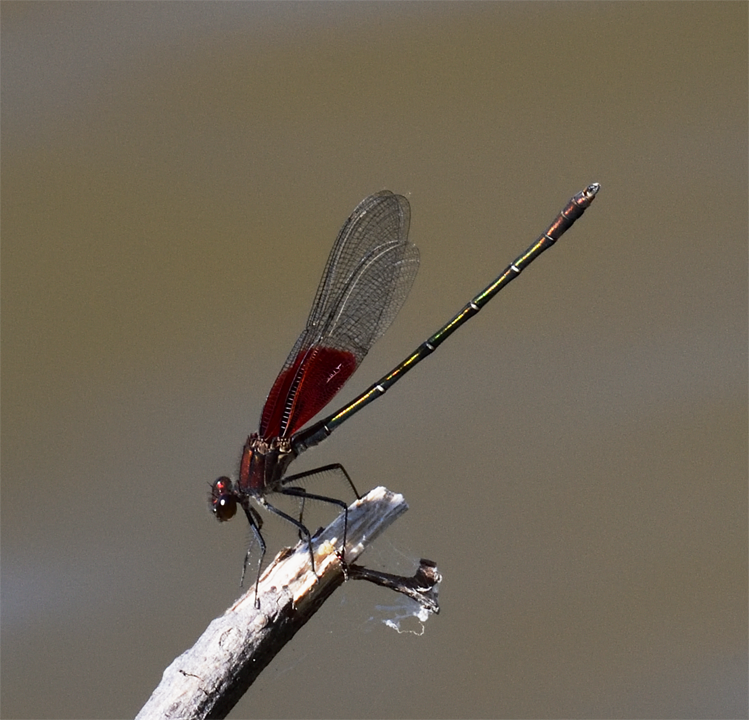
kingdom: Animalia
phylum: Arthropoda
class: Insecta
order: Odonata
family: Calopterygidae
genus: Hetaerina
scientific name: Hetaerina americana
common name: American rubyspot
